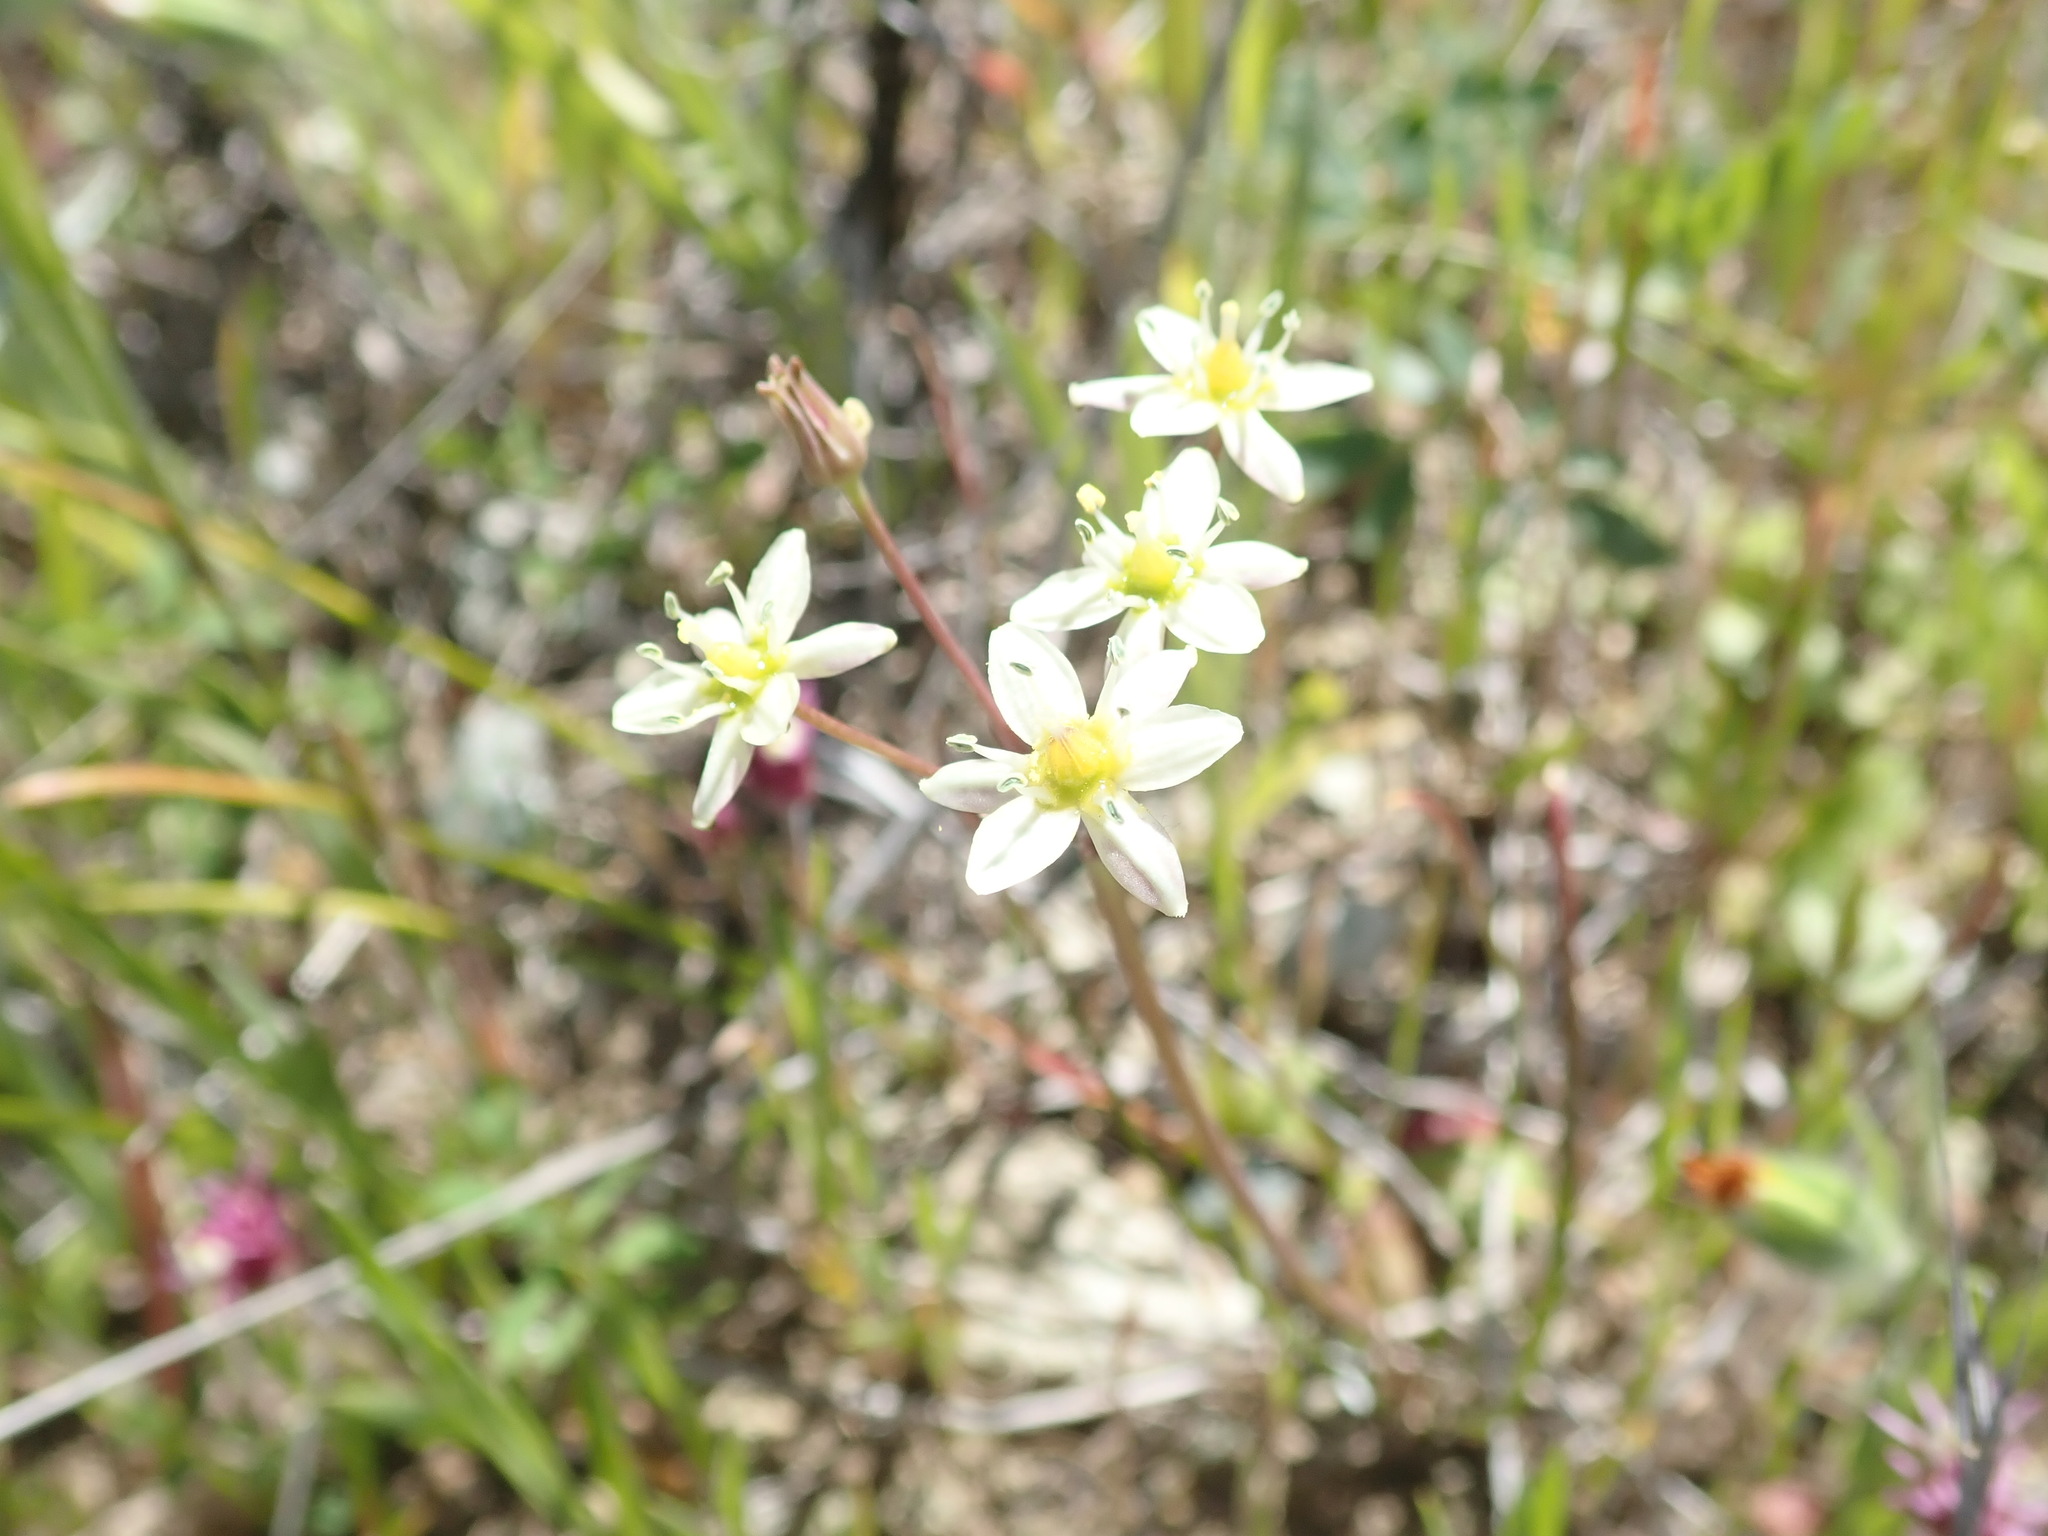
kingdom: Plantae
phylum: Tracheophyta
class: Liliopsida
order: Asparagales
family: Asparagaceae
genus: Muilla
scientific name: Muilla maritima
